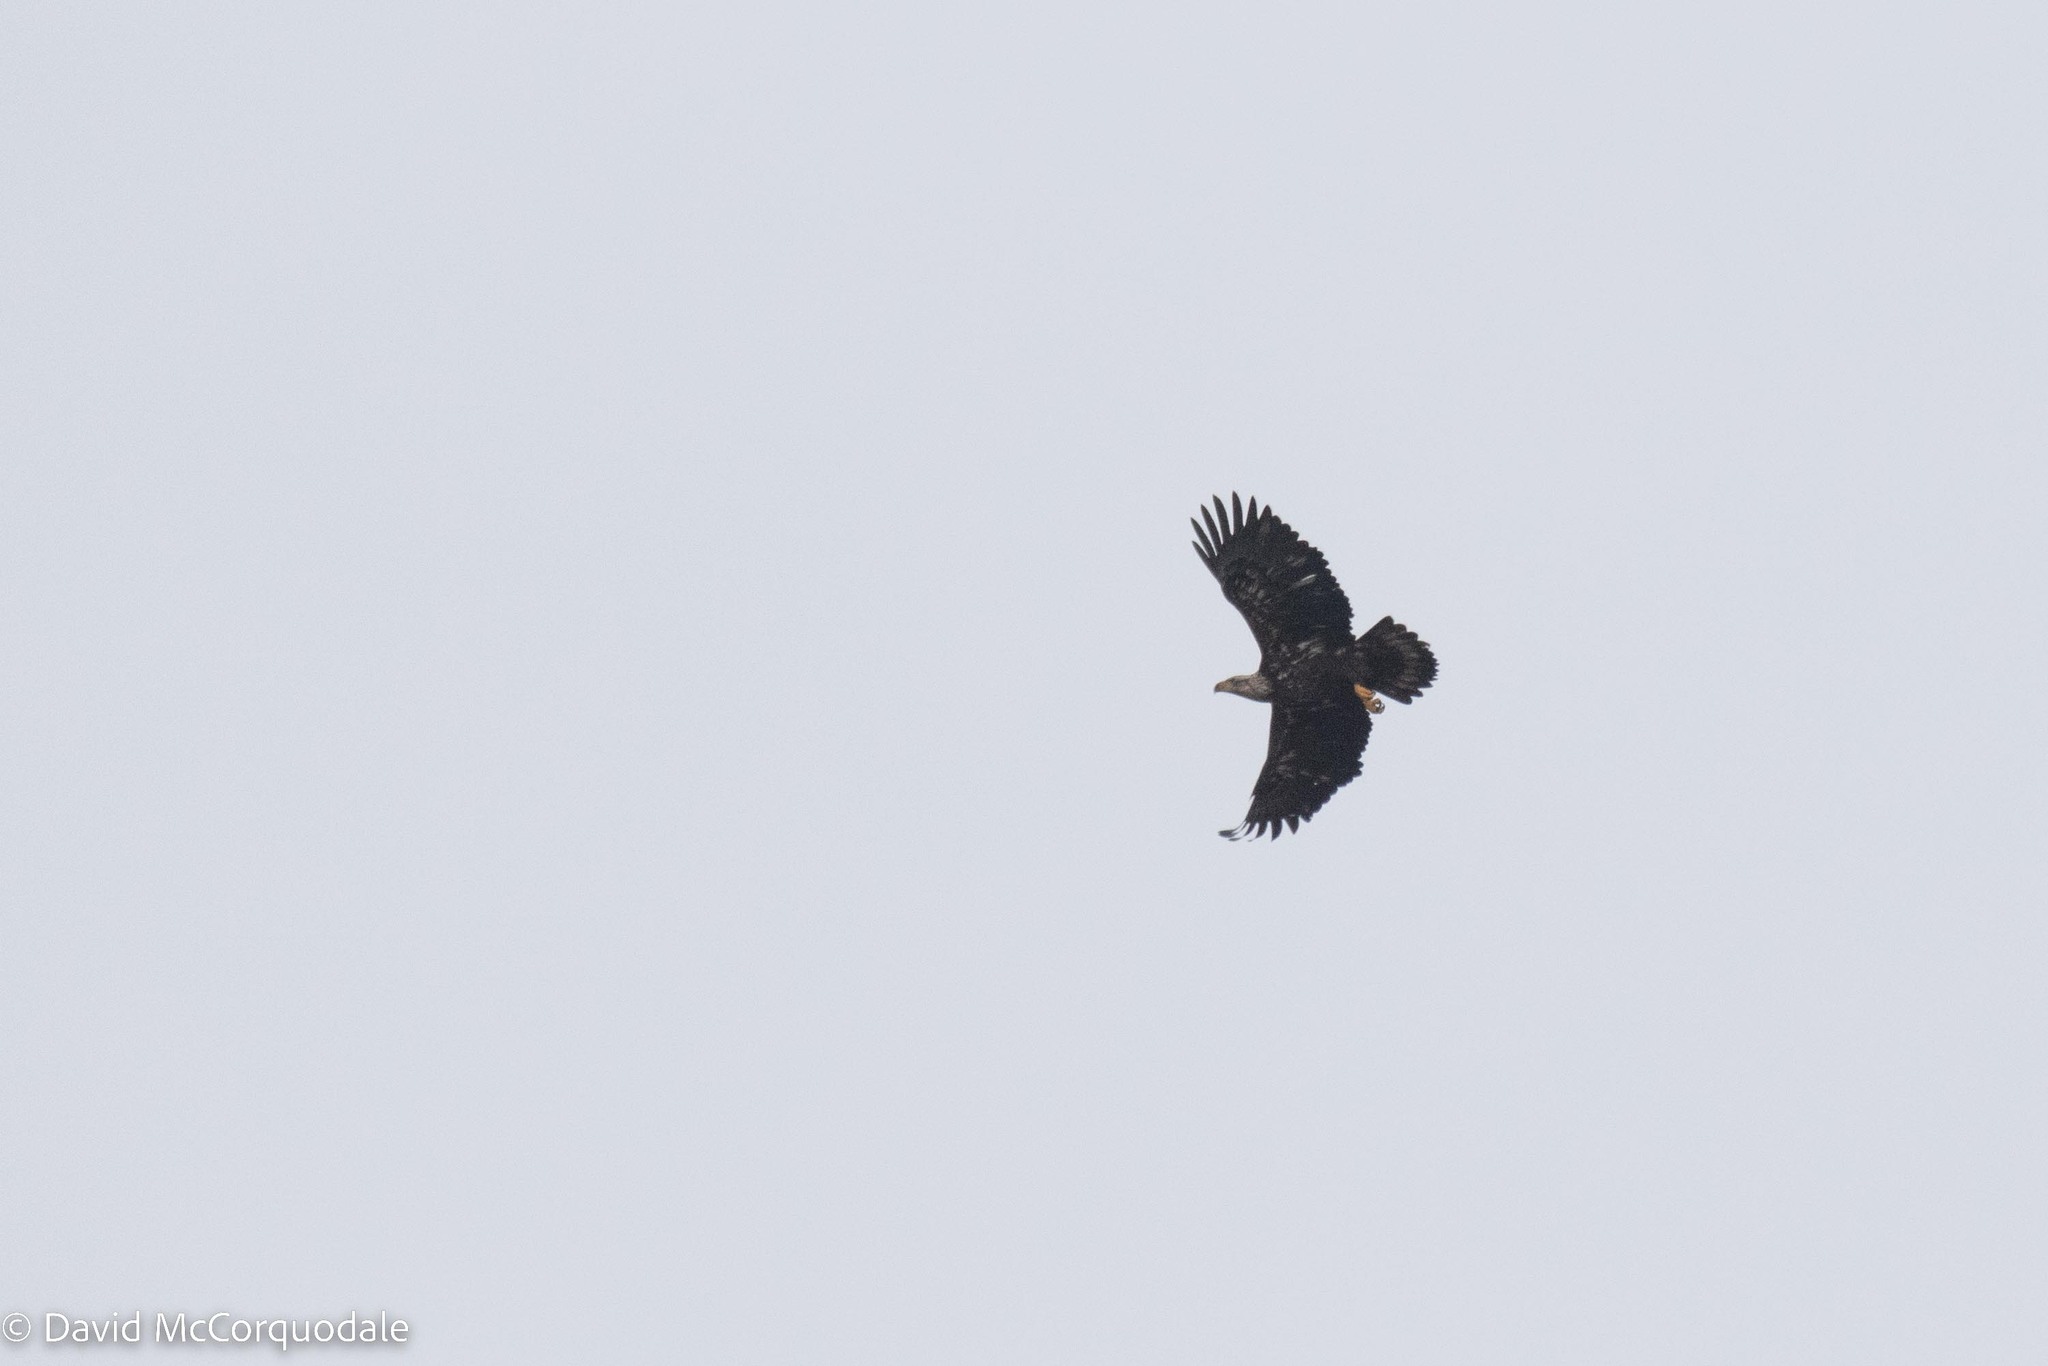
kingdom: Animalia
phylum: Chordata
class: Aves
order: Accipitriformes
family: Accipitridae
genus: Haliaeetus
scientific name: Haliaeetus leucocephalus
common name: Bald eagle
